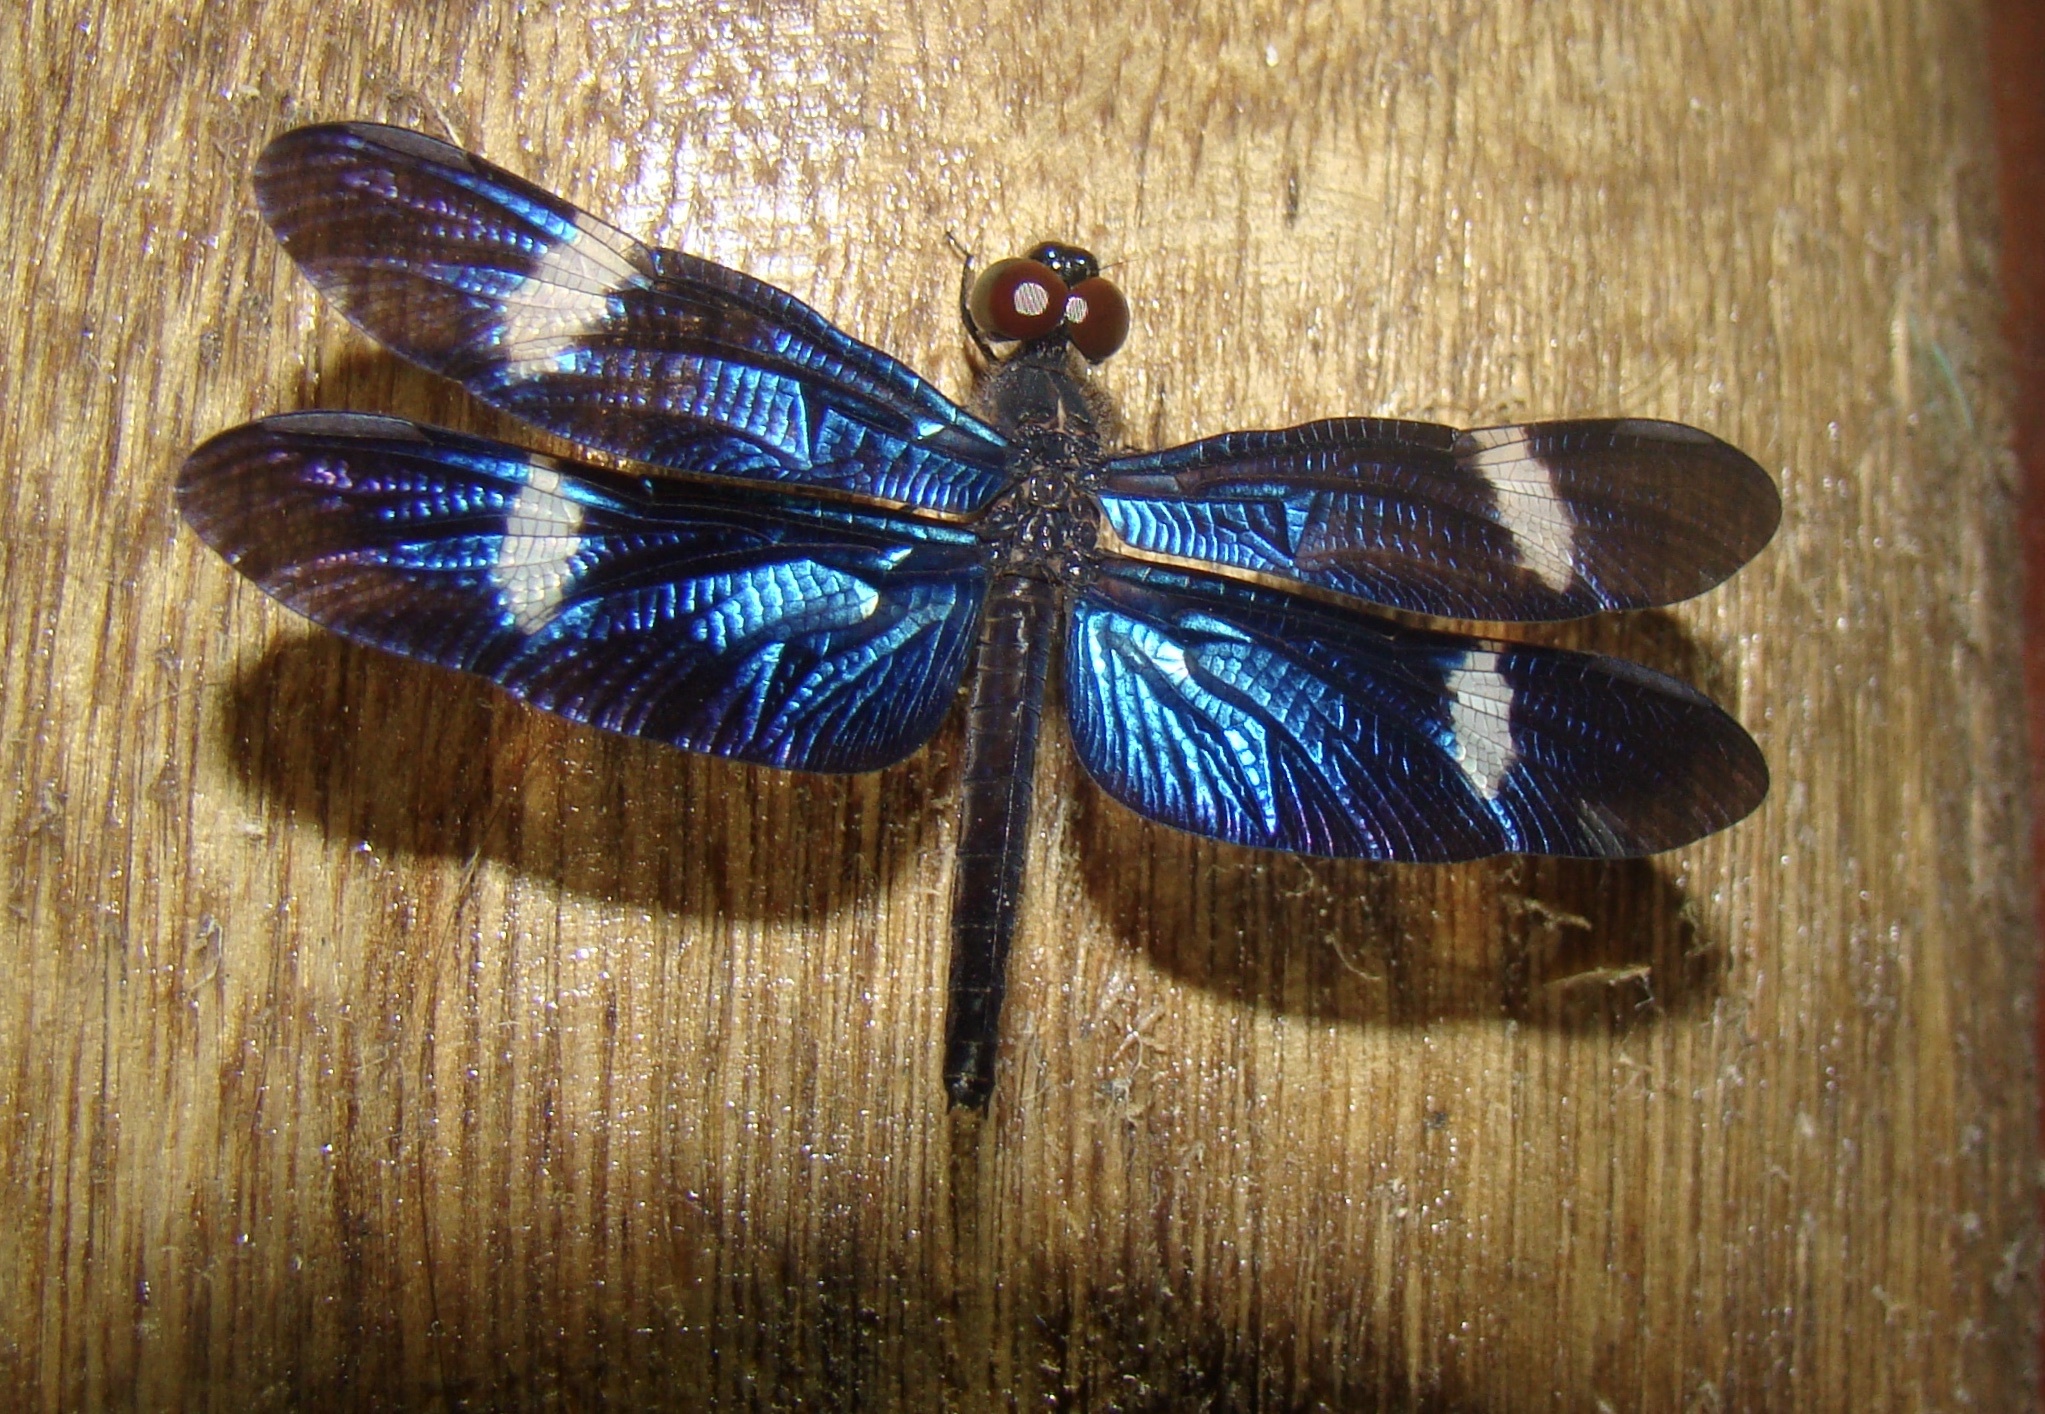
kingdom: Animalia
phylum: Arthropoda
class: Insecta
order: Odonata
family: Libellulidae
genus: Zenithoptera
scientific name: Zenithoptera fasciata
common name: Rainforest bluewing
